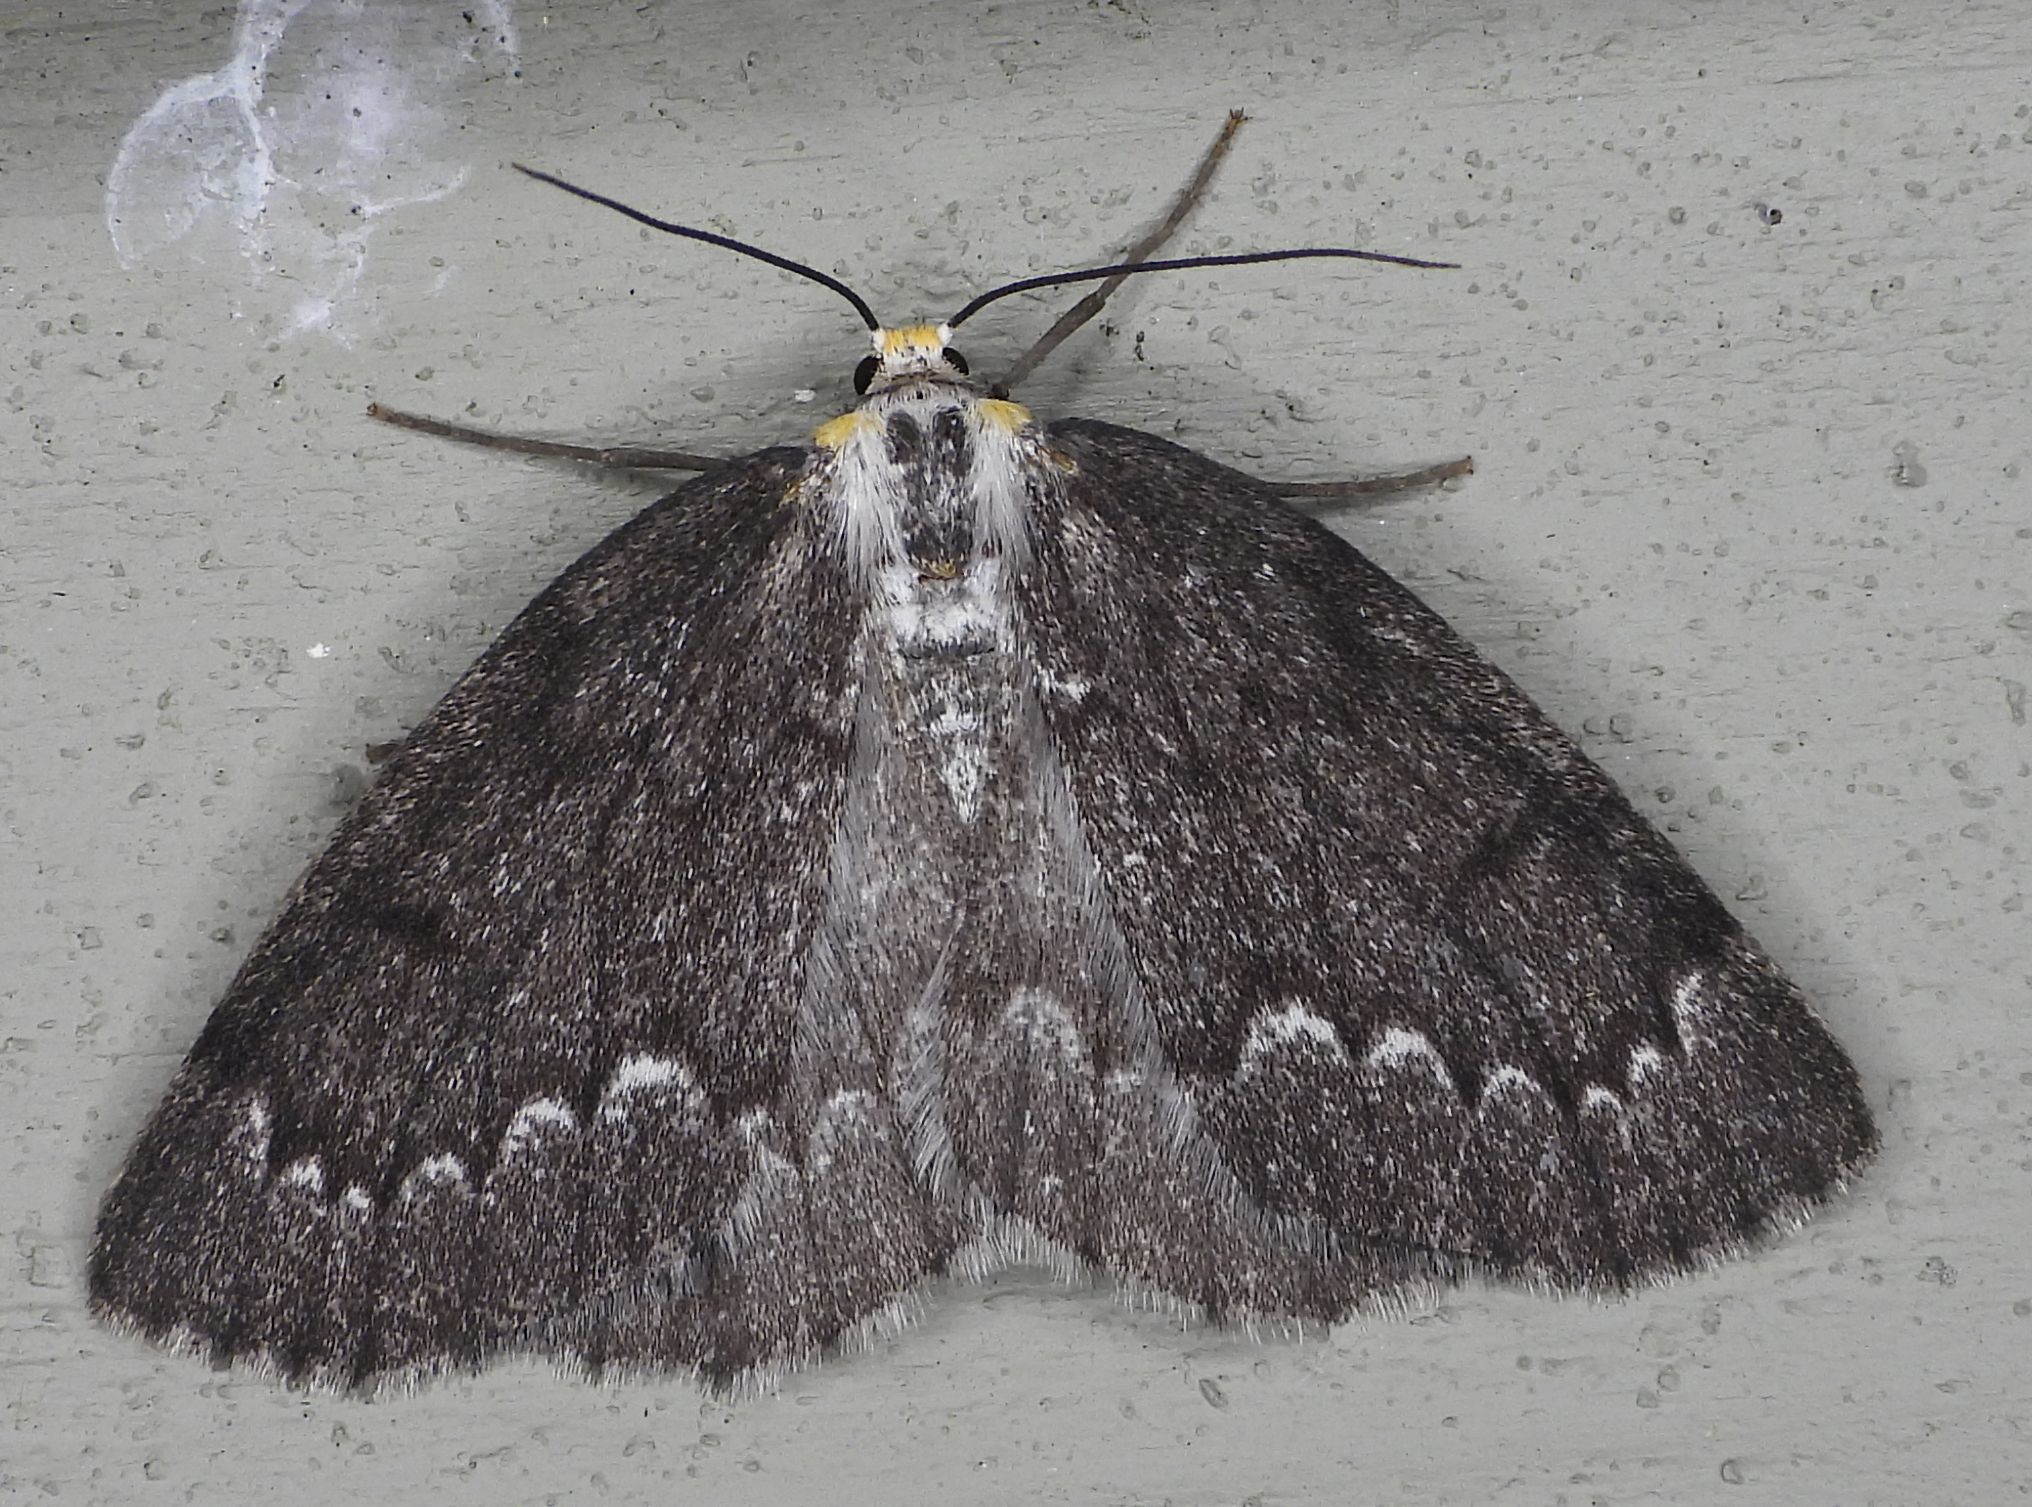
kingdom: Animalia
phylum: Arthropoda
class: Insecta
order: Lepidoptera
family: Geometridae
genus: Nepytia
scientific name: Nepytia canosaria
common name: False hemlock looper
